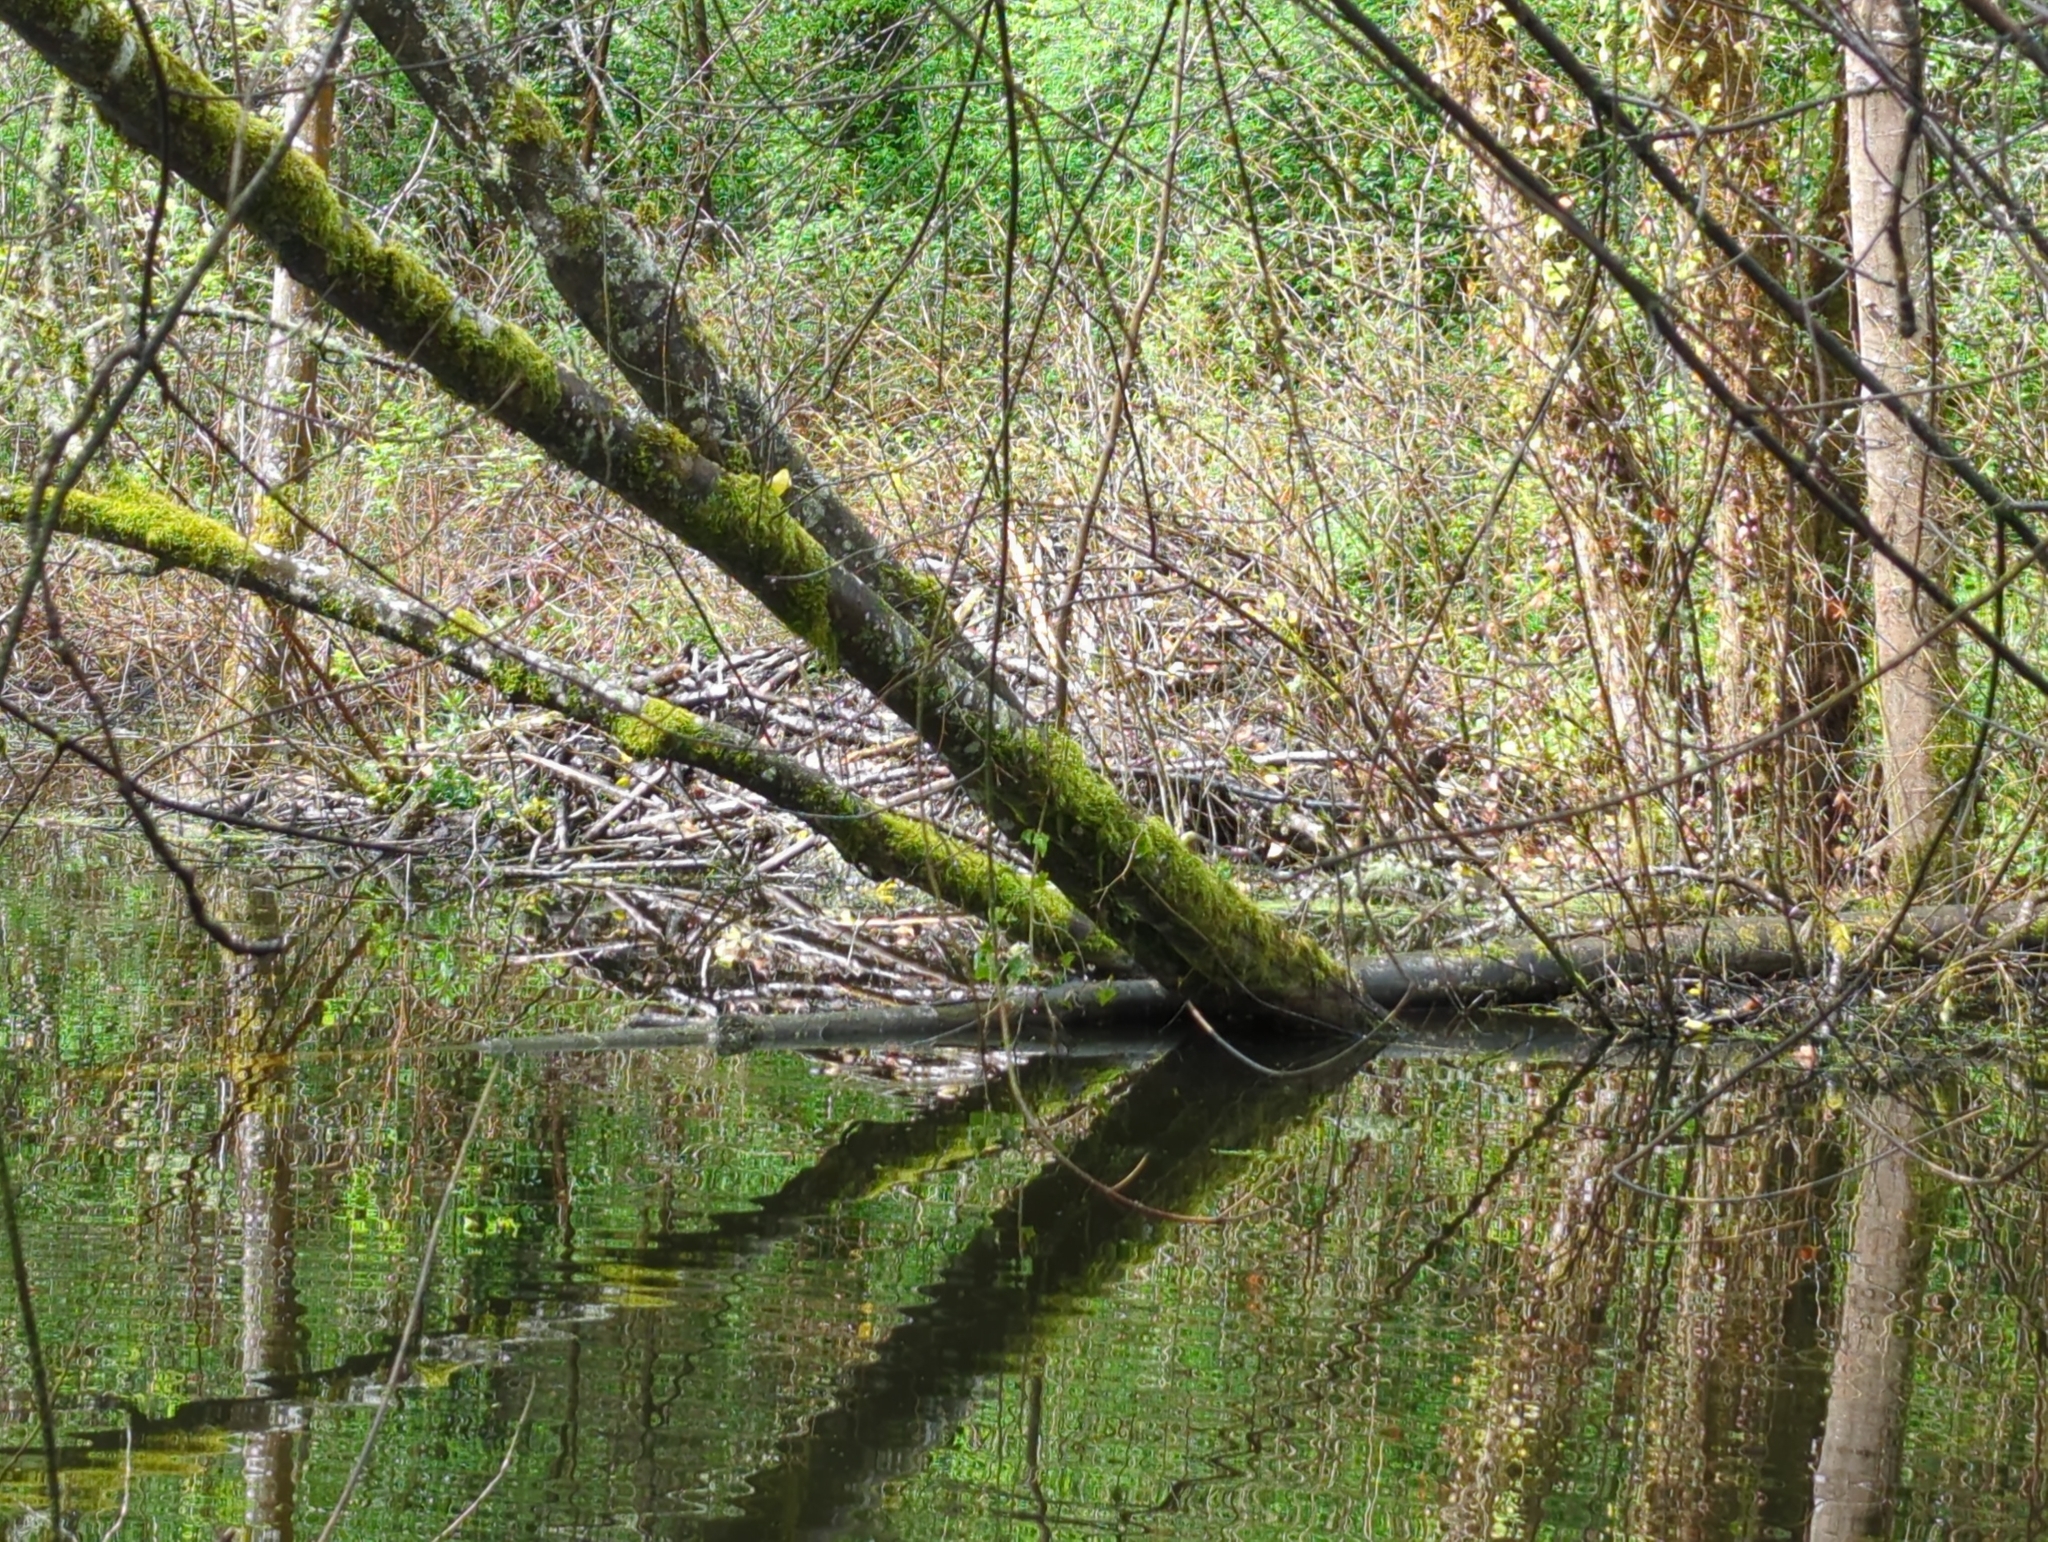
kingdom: Animalia
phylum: Chordata
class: Mammalia
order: Rodentia
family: Castoridae
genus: Castor
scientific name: Castor canadensis
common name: American beaver
